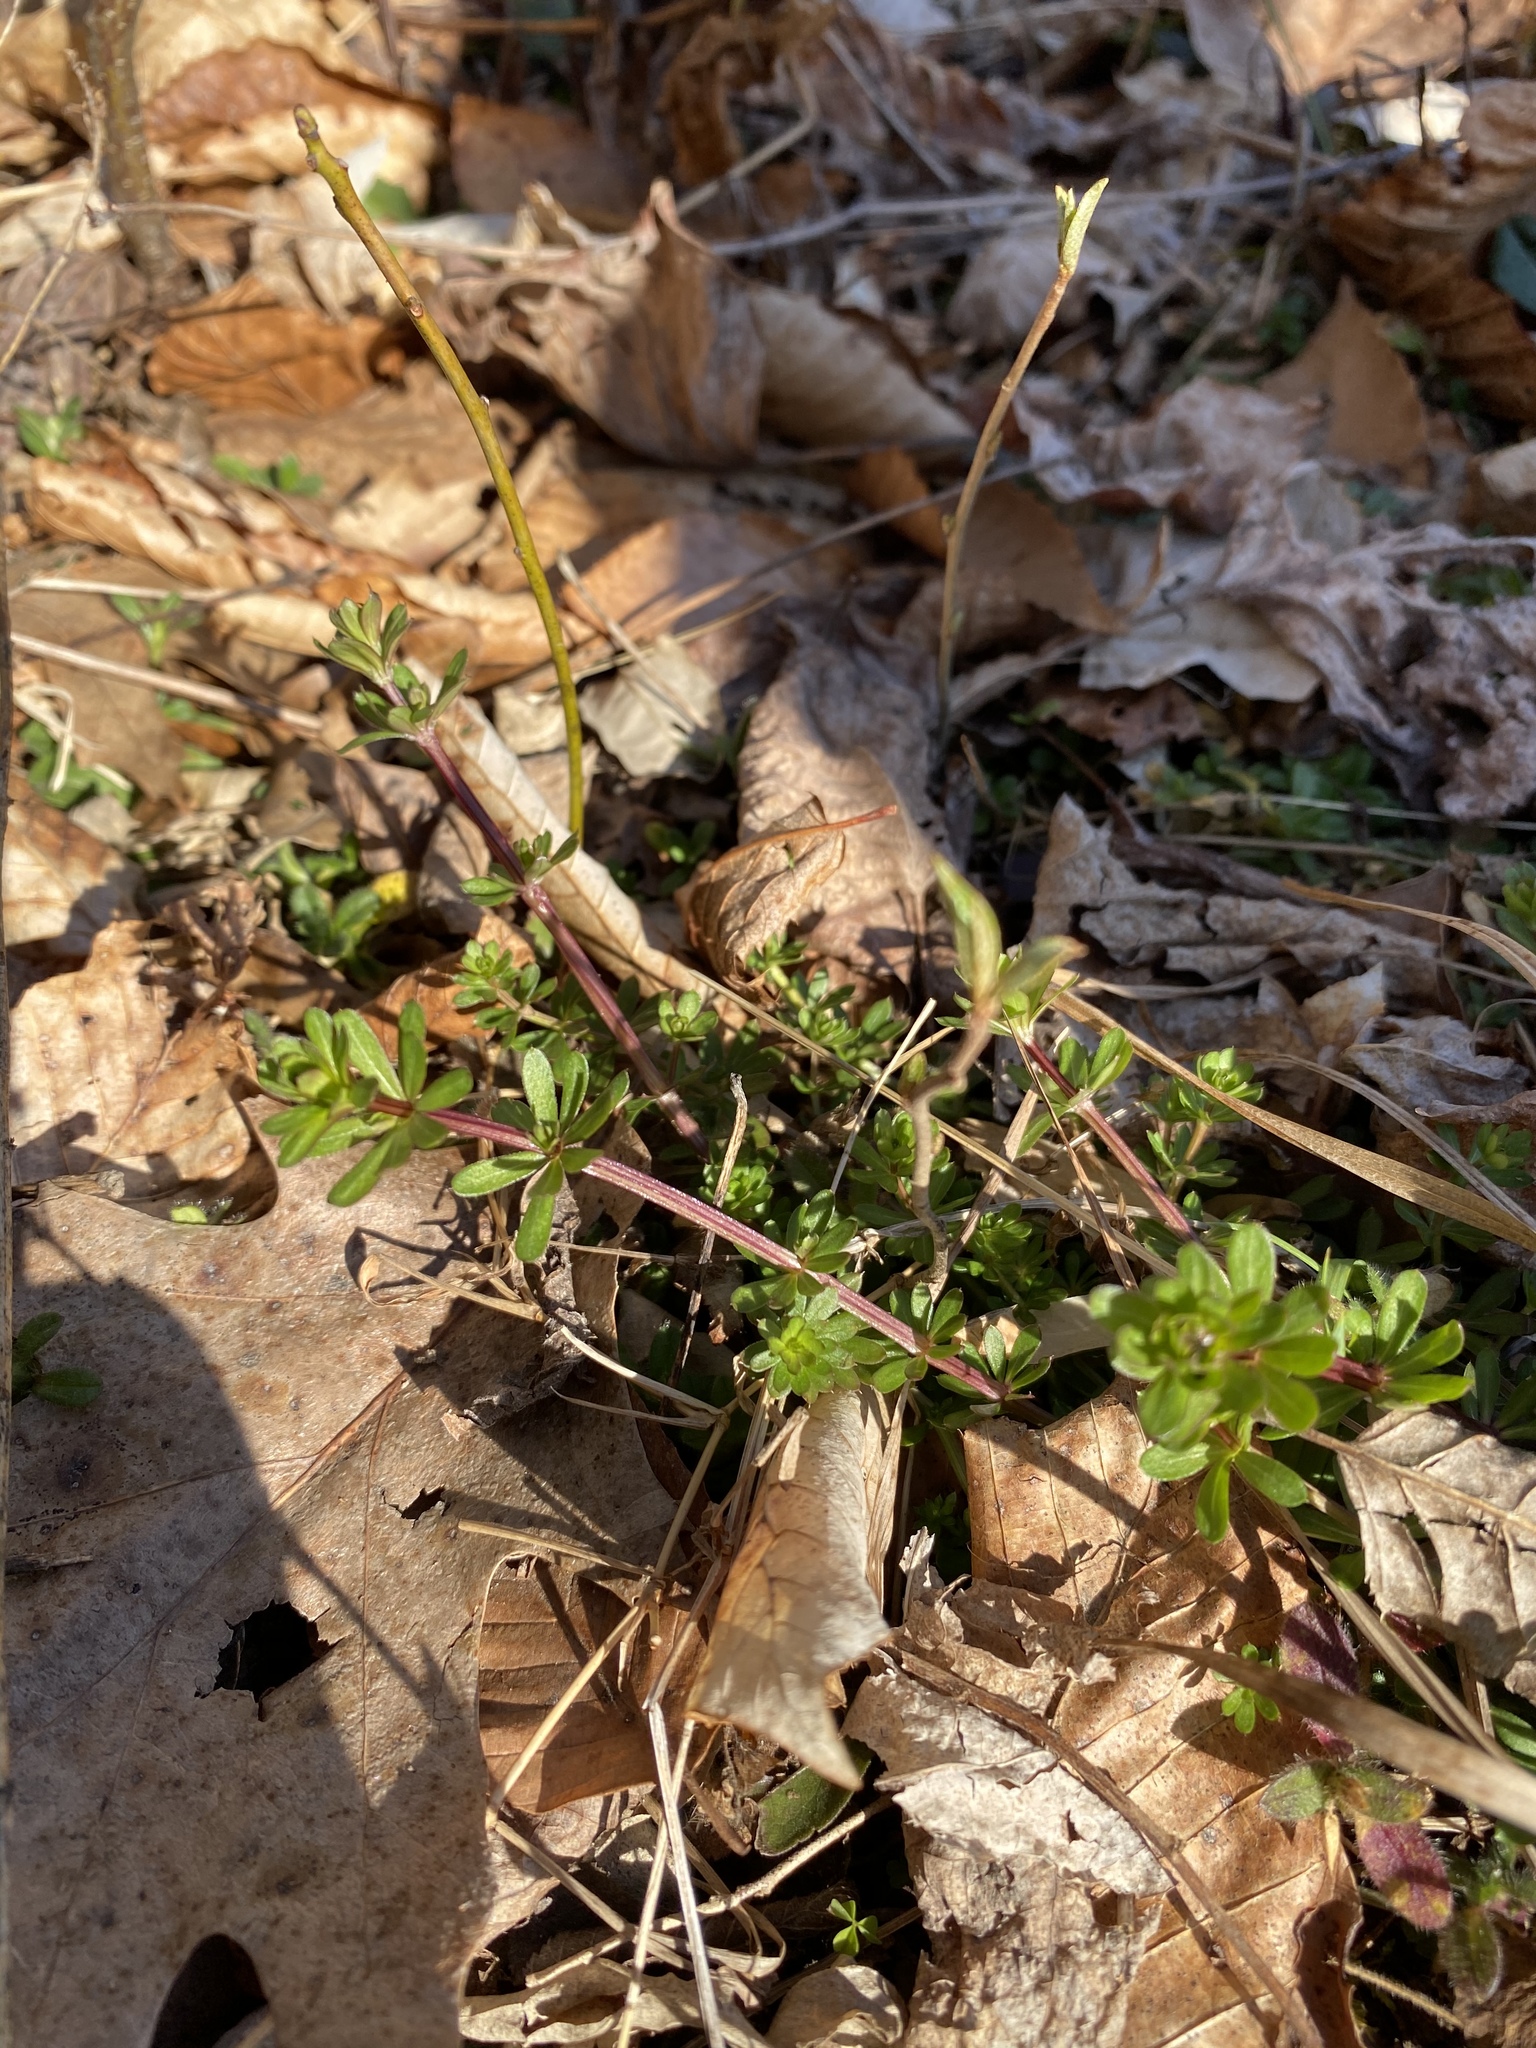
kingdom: Plantae
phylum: Tracheophyta
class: Magnoliopsida
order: Gentianales
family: Rubiaceae
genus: Galium
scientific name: Galium mollugo
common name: Hedge bedstraw
